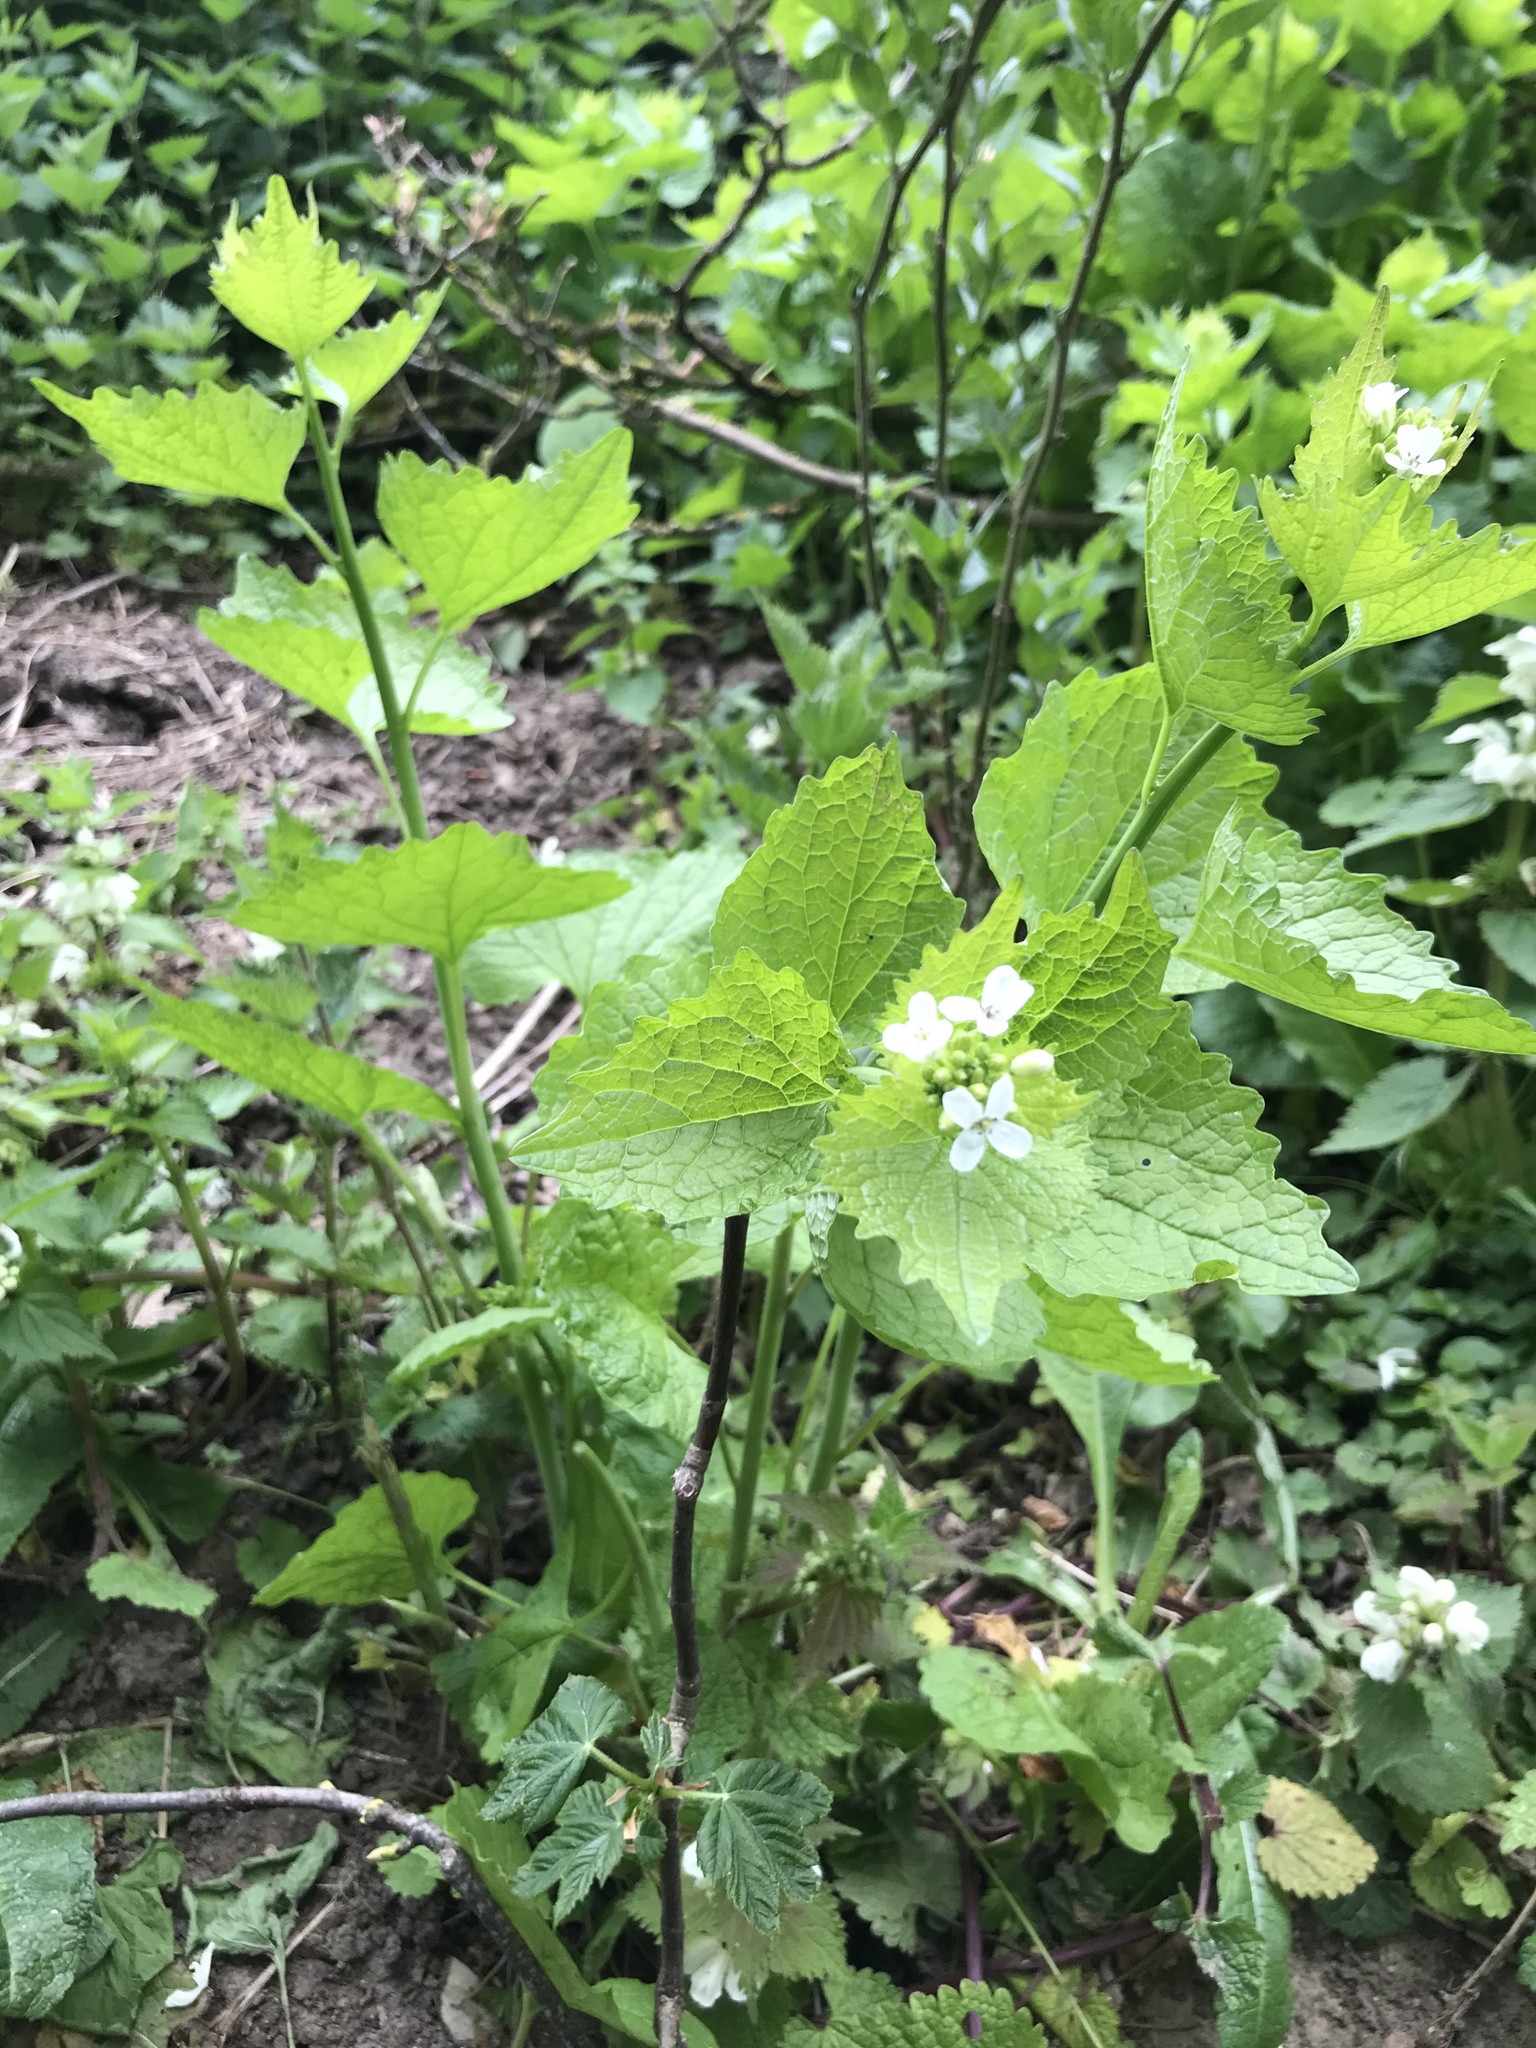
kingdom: Plantae
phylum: Tracheophyta
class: Magnoliopsida
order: Brassicales
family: Brassicaceae
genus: Alliaria
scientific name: Alliaria petiolata
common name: Garlic mustard
